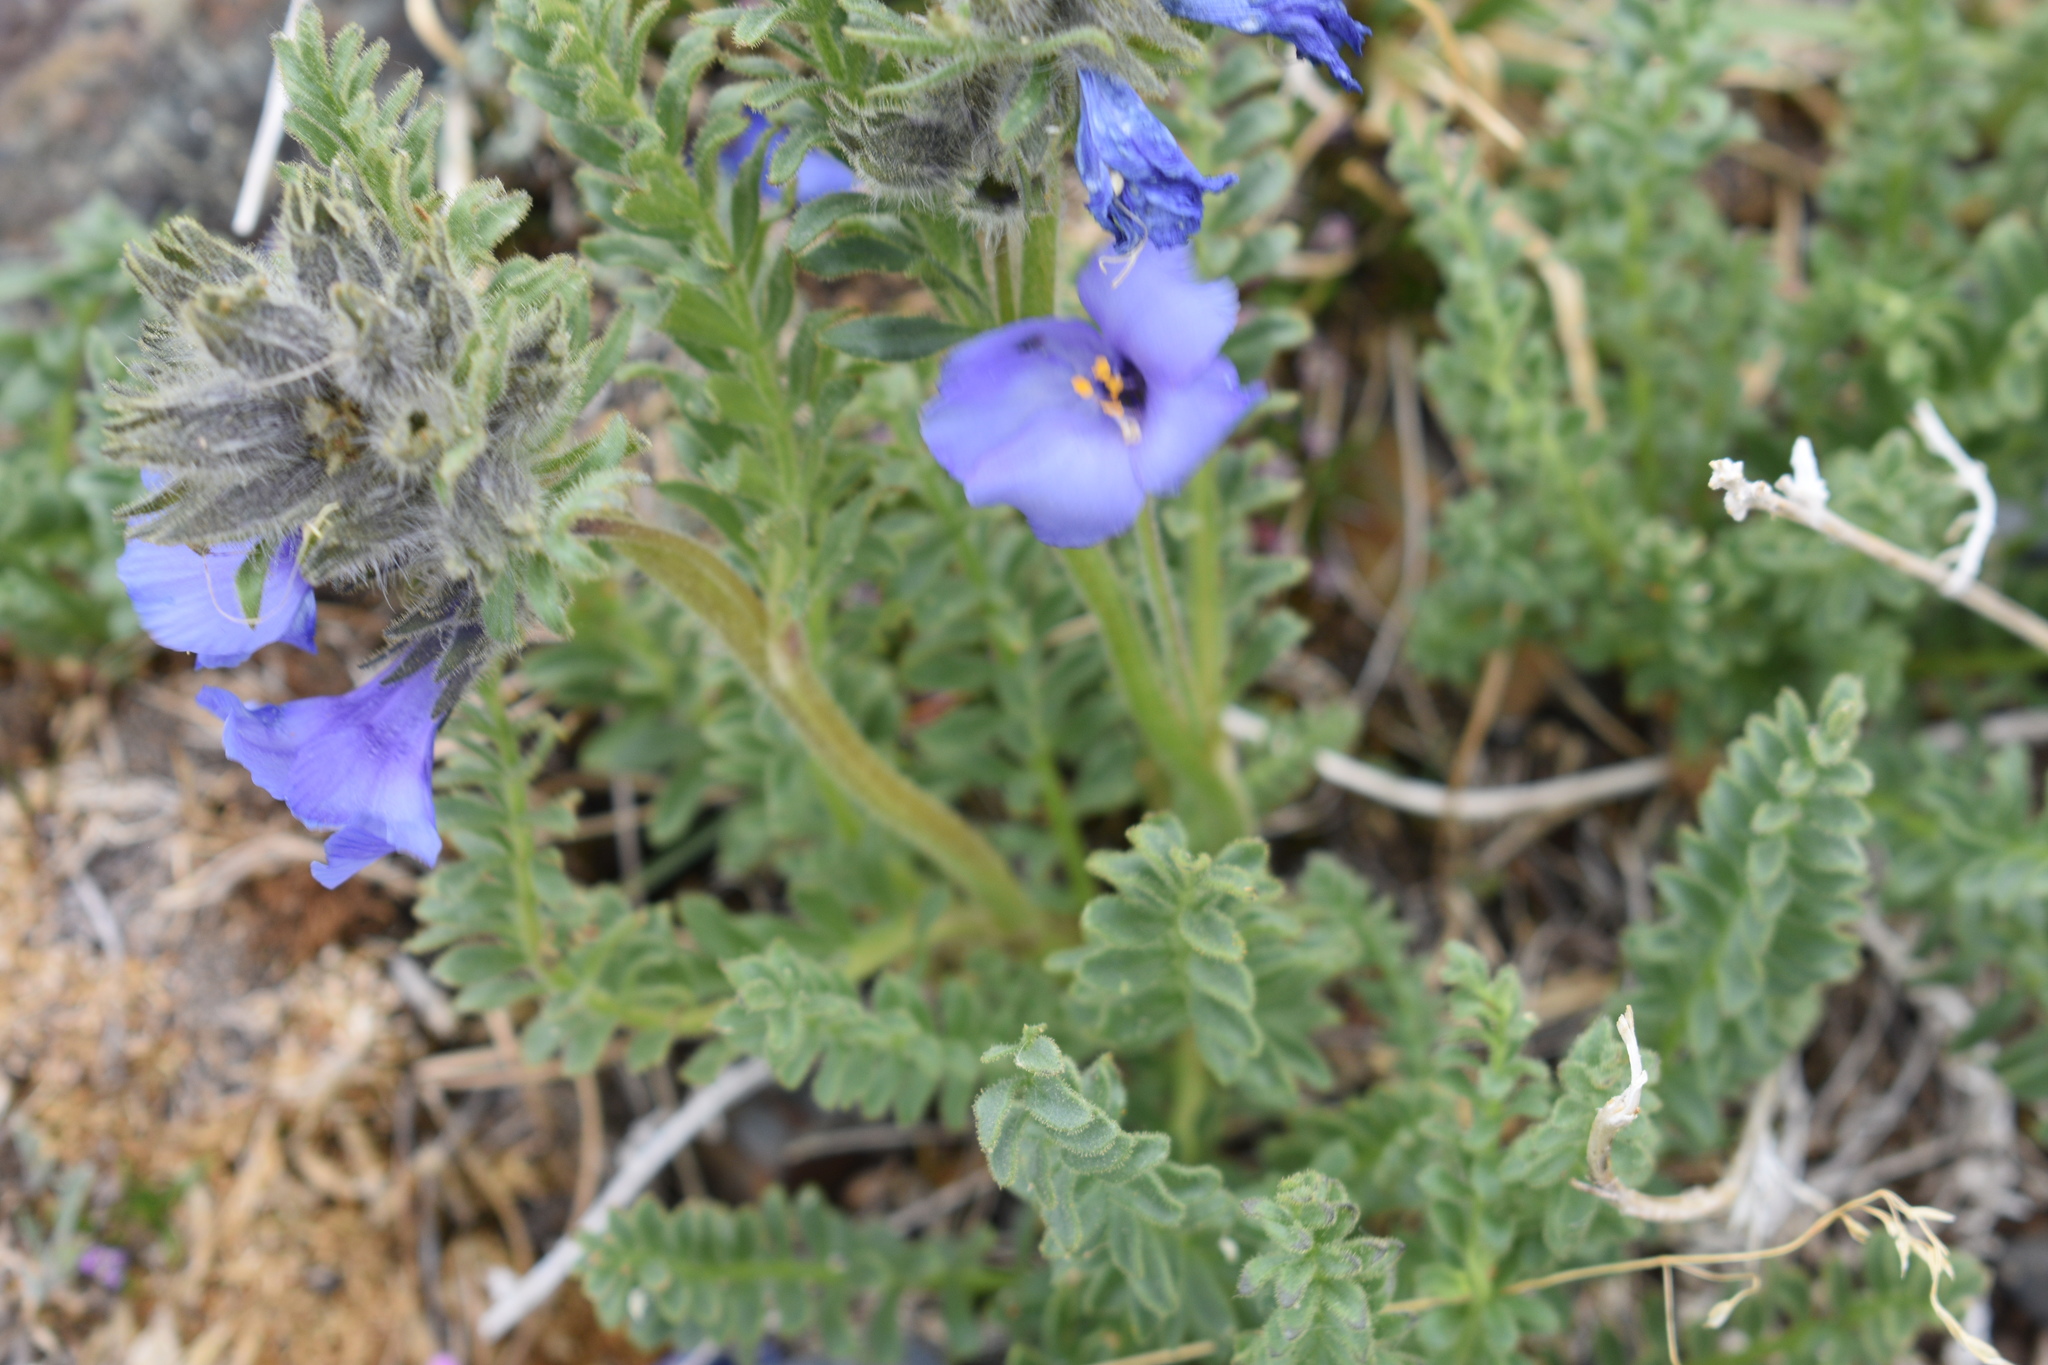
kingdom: Plantae
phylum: Tracheophyta
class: Magnoliopsida
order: Ericales
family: Polemoniaceae
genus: Polemonium
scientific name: Polemonium viscosum
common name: Skunk jacob's-ladder
